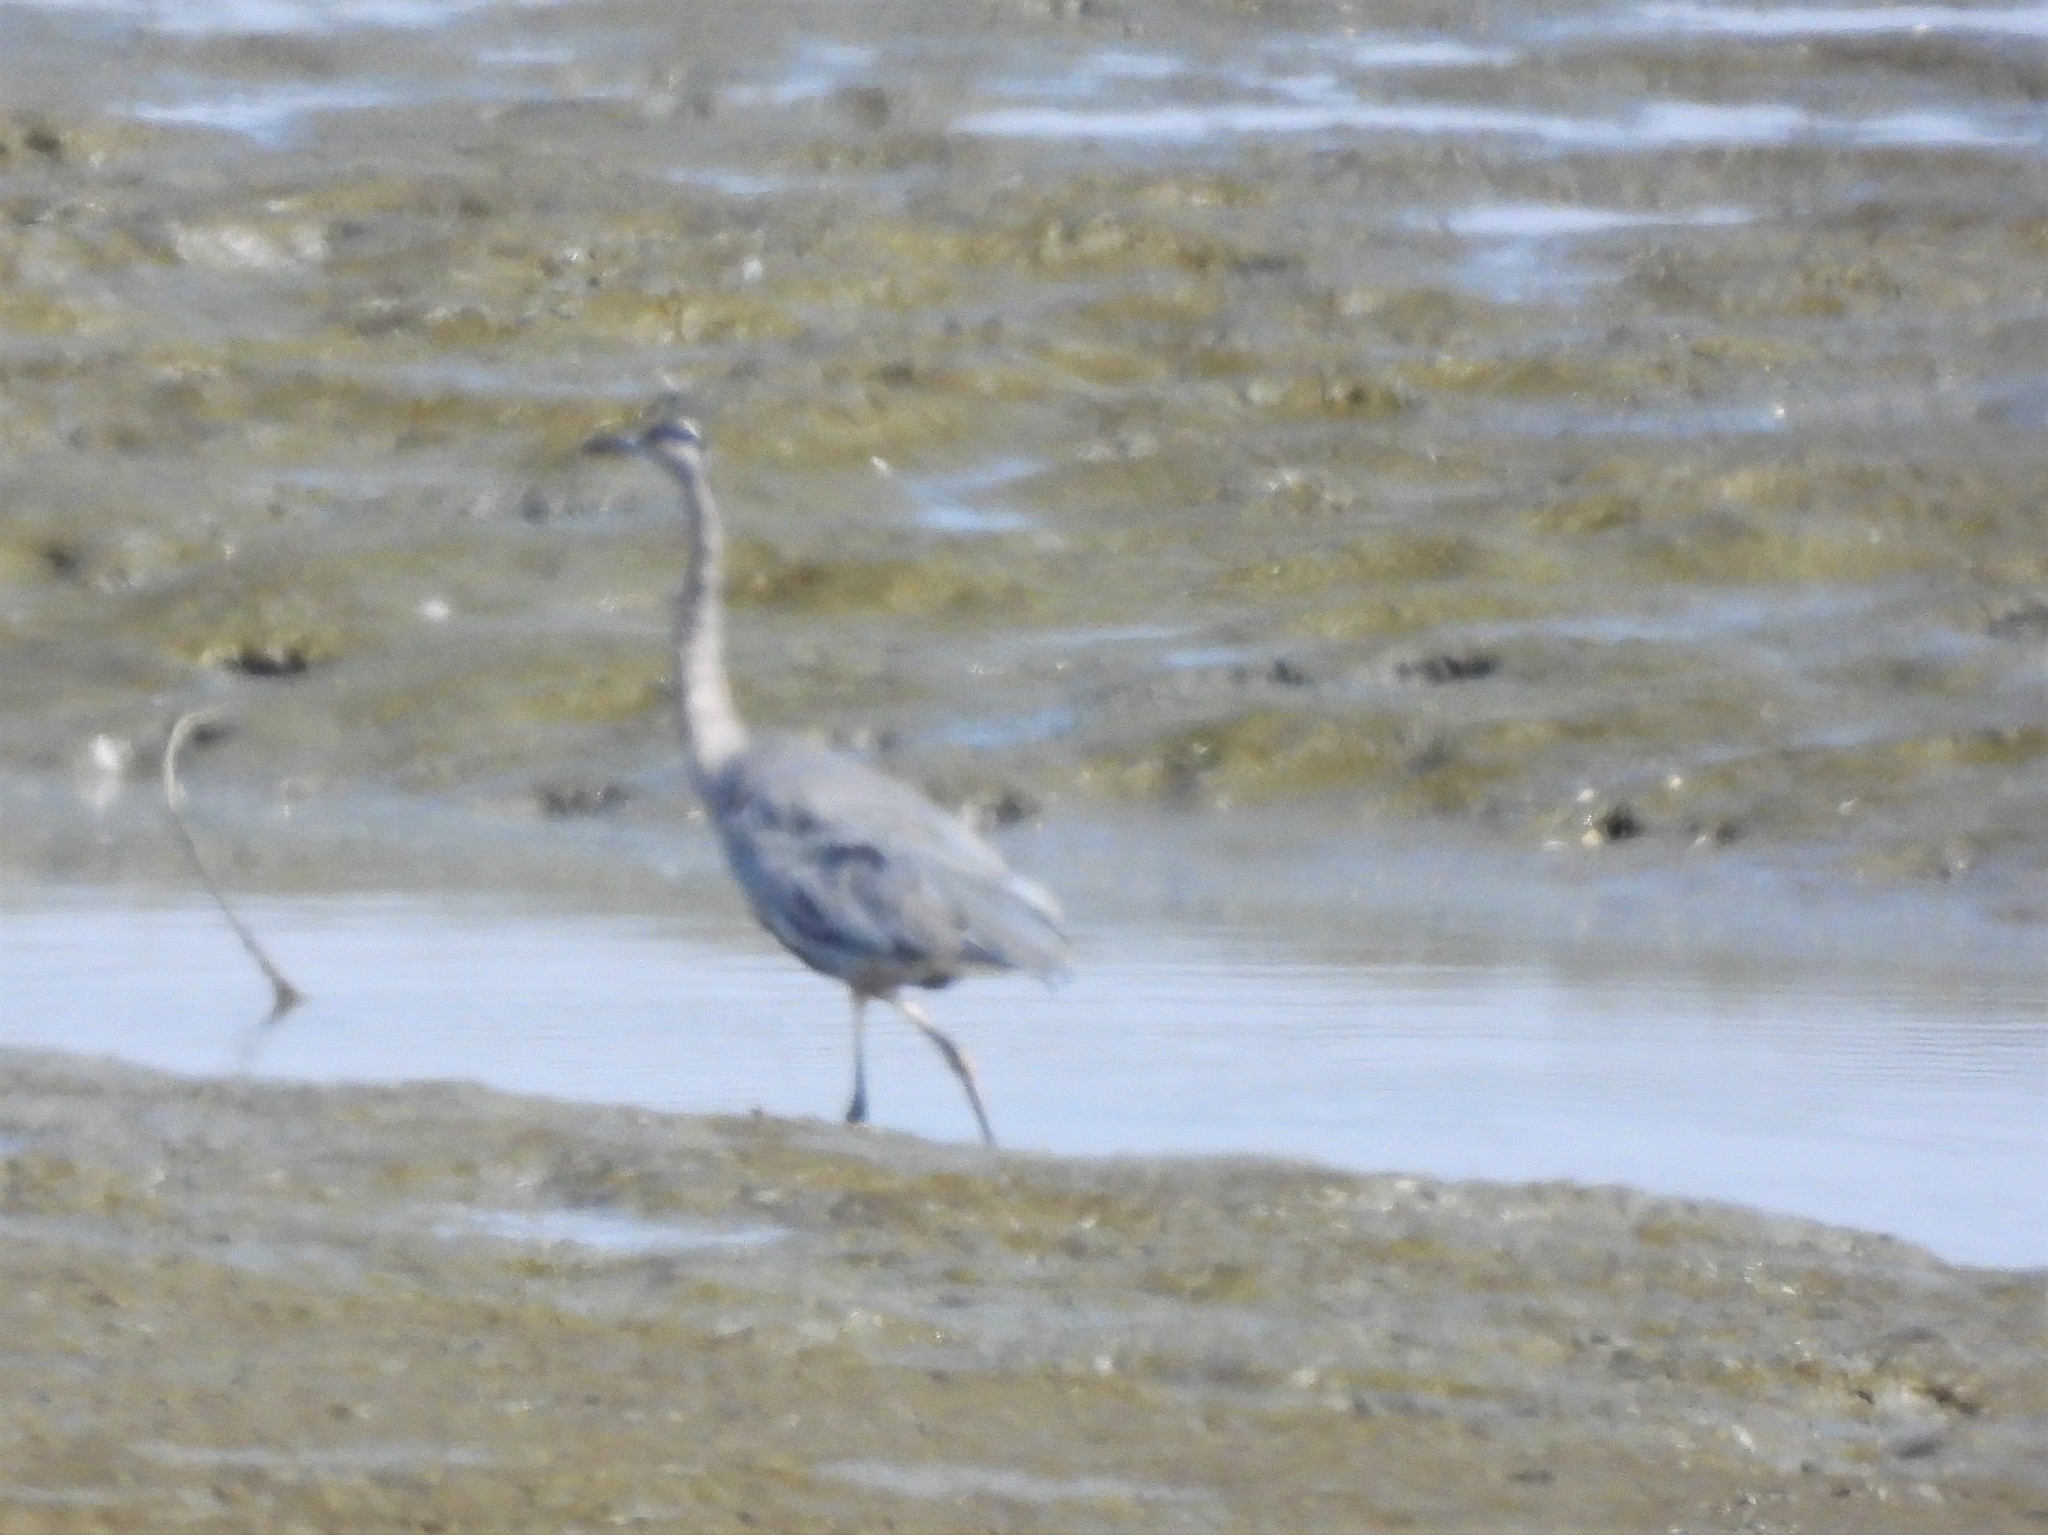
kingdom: Animalia
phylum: Chordata
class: Aves
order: Pelecaniformes
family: Ardeidae
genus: Ardea
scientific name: Ardea herodias
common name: Great blue heron
